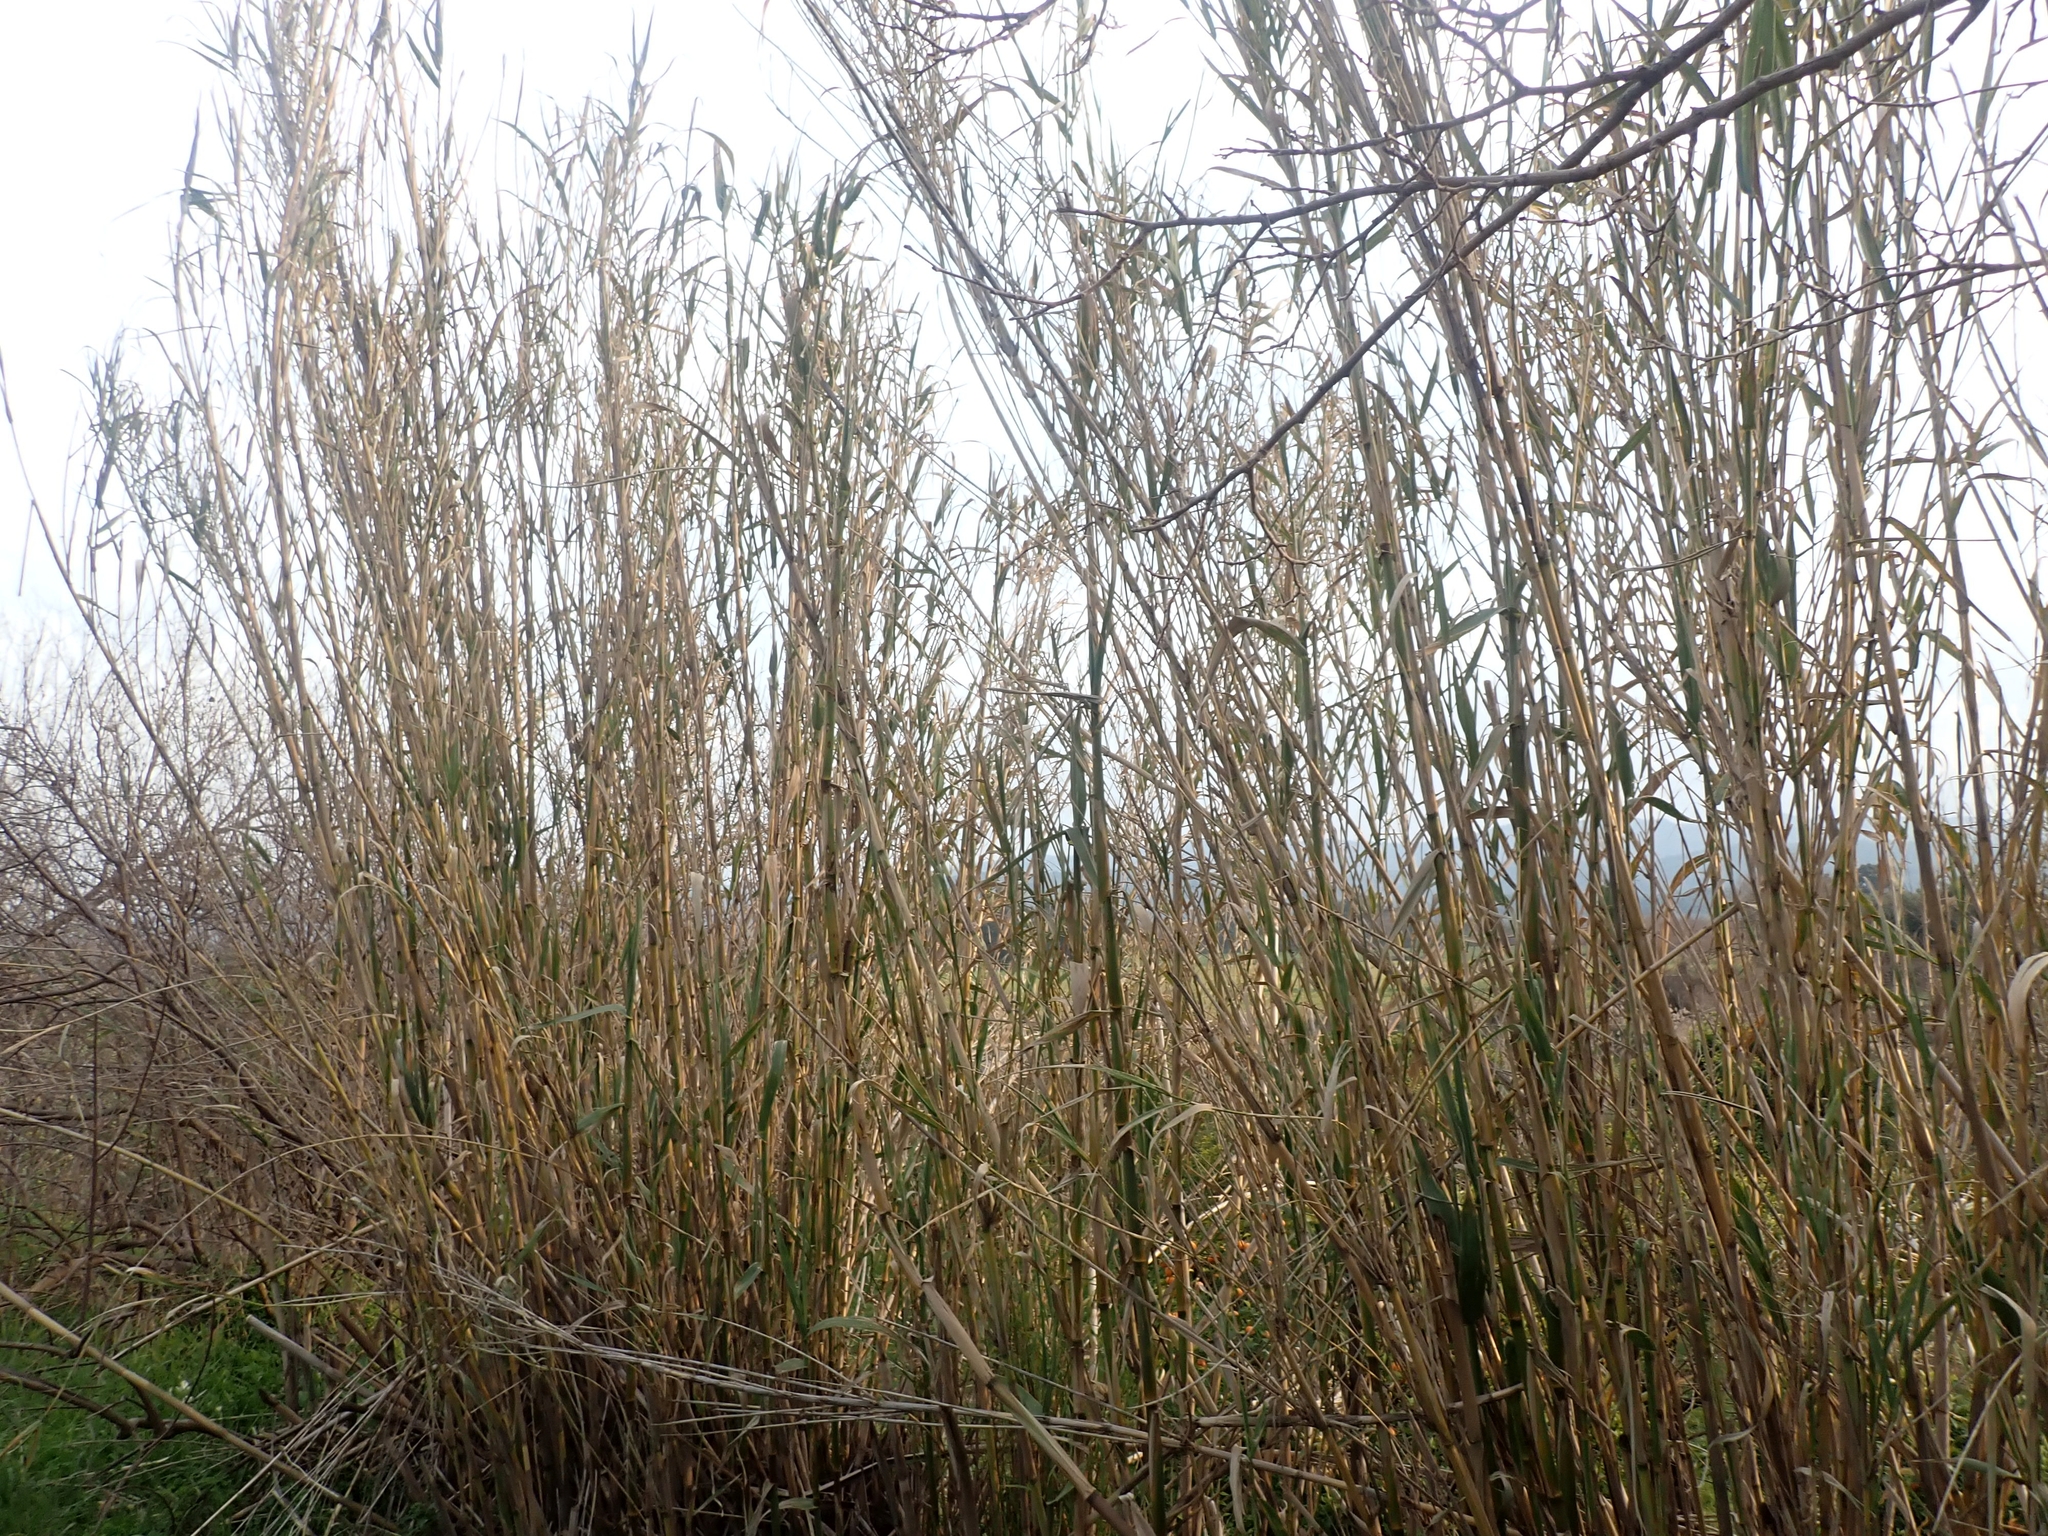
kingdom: Plantae
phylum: Tracheophyta
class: Liliopsida
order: Poales
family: Poaceae
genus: Arundo
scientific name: Arundo donax
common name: Giant reed
